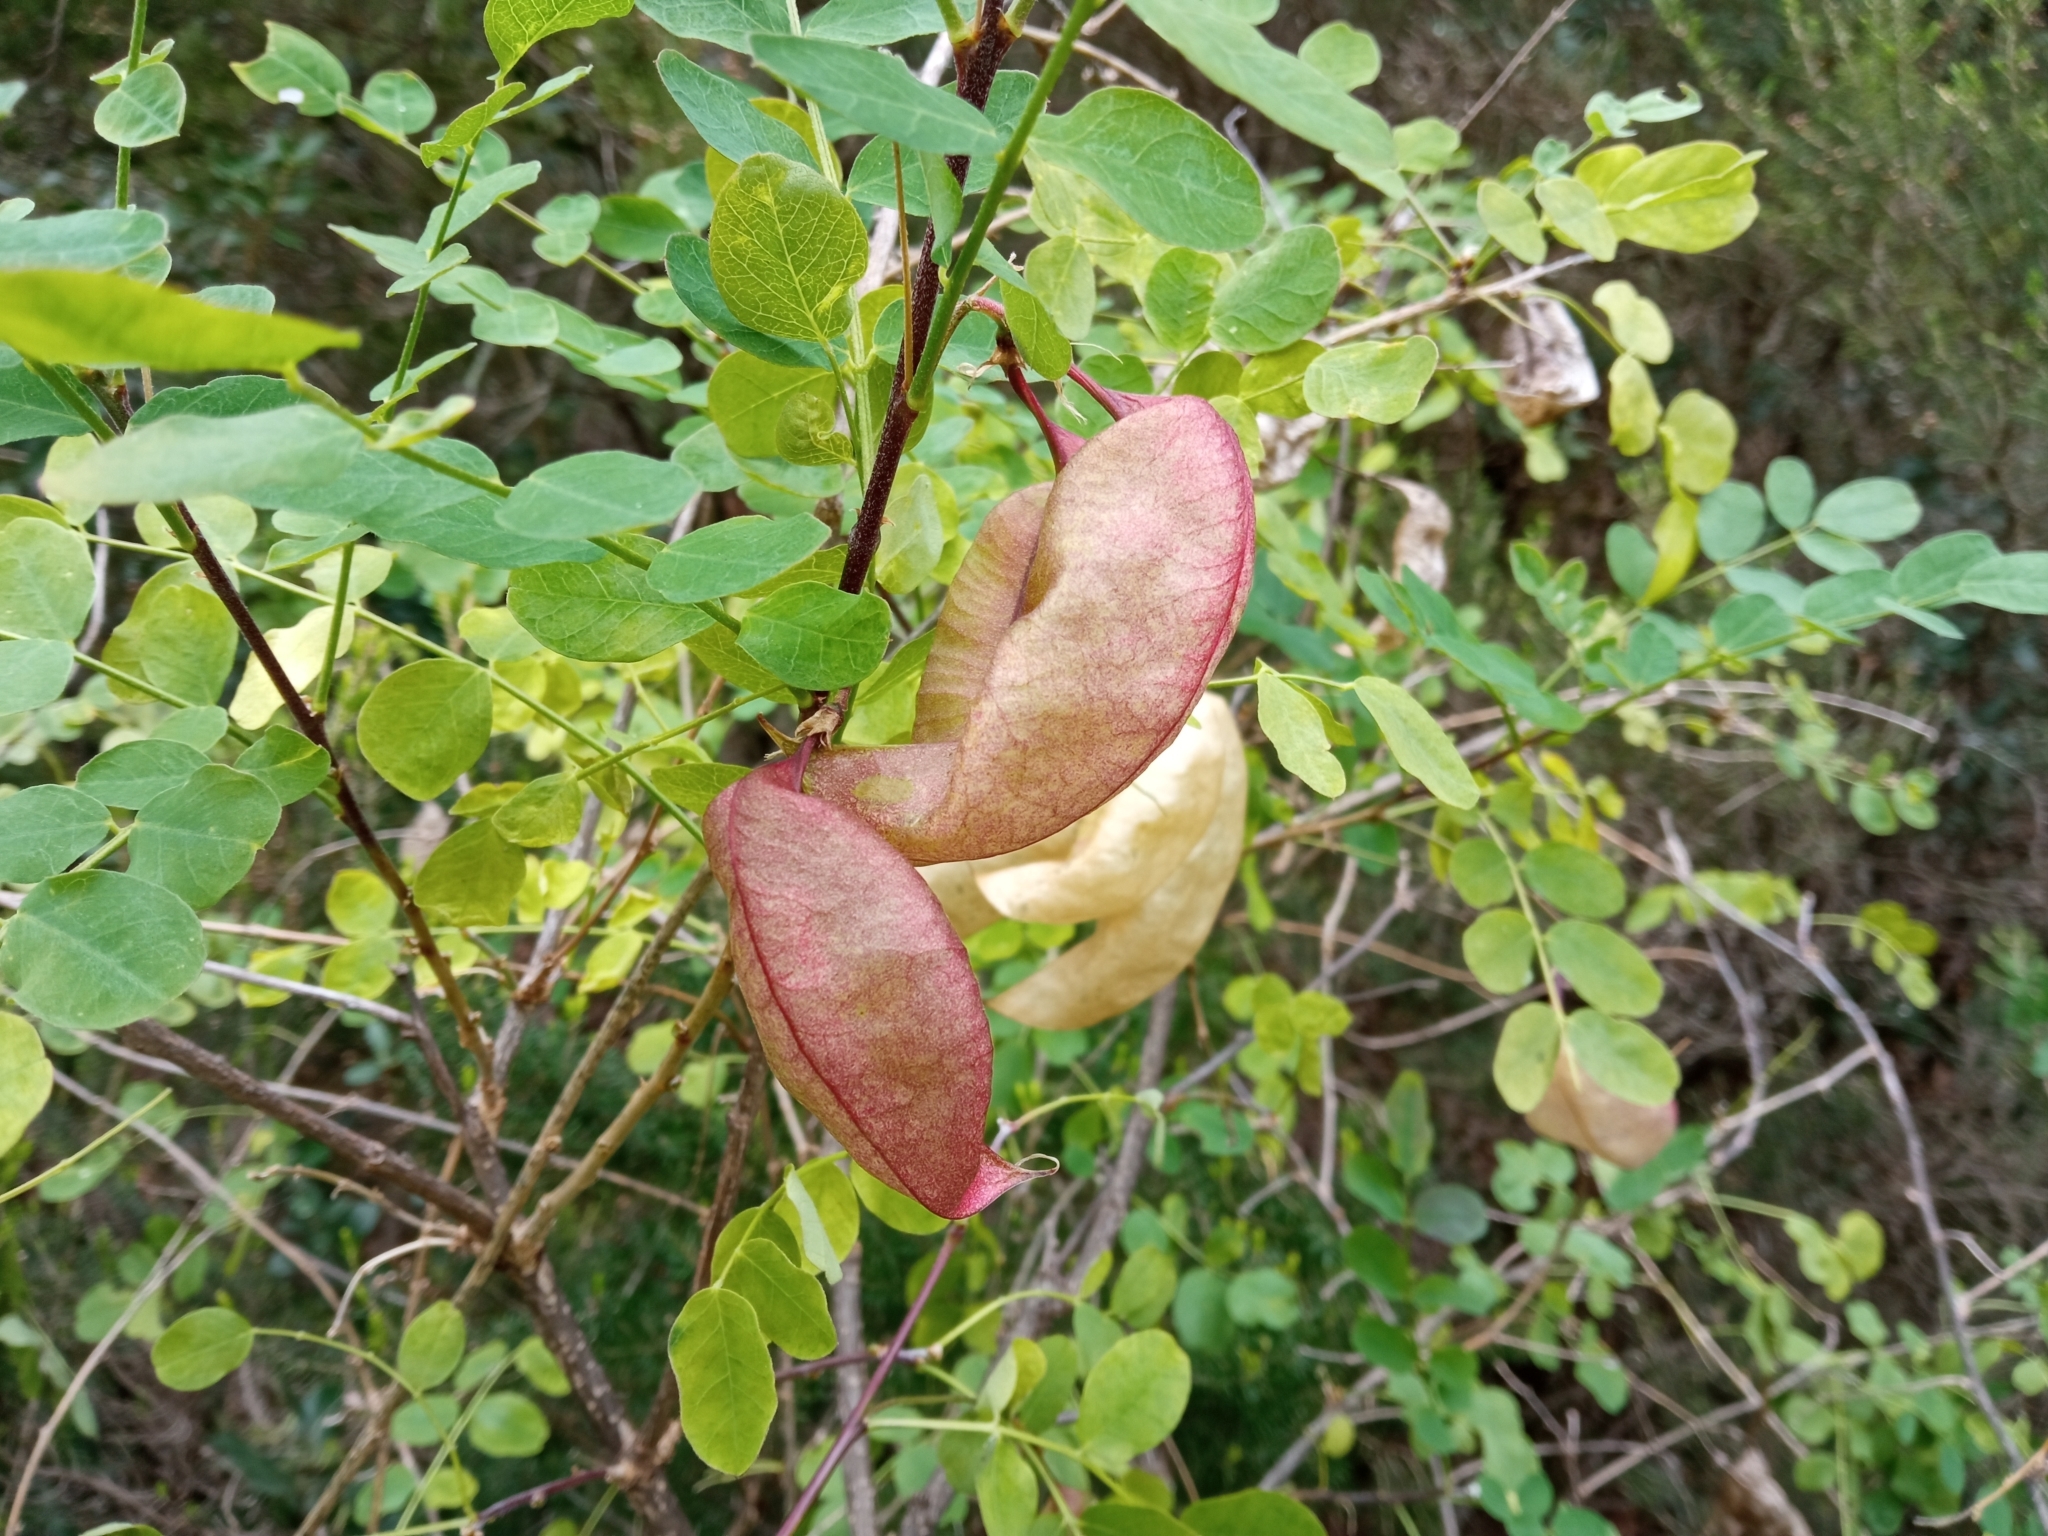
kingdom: Plantae
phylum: Tracheophyta
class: Magnoliopsida
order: Fabales
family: Fabaceae
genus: Colutea
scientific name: Colutea arborescens
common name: Bladder-senna
